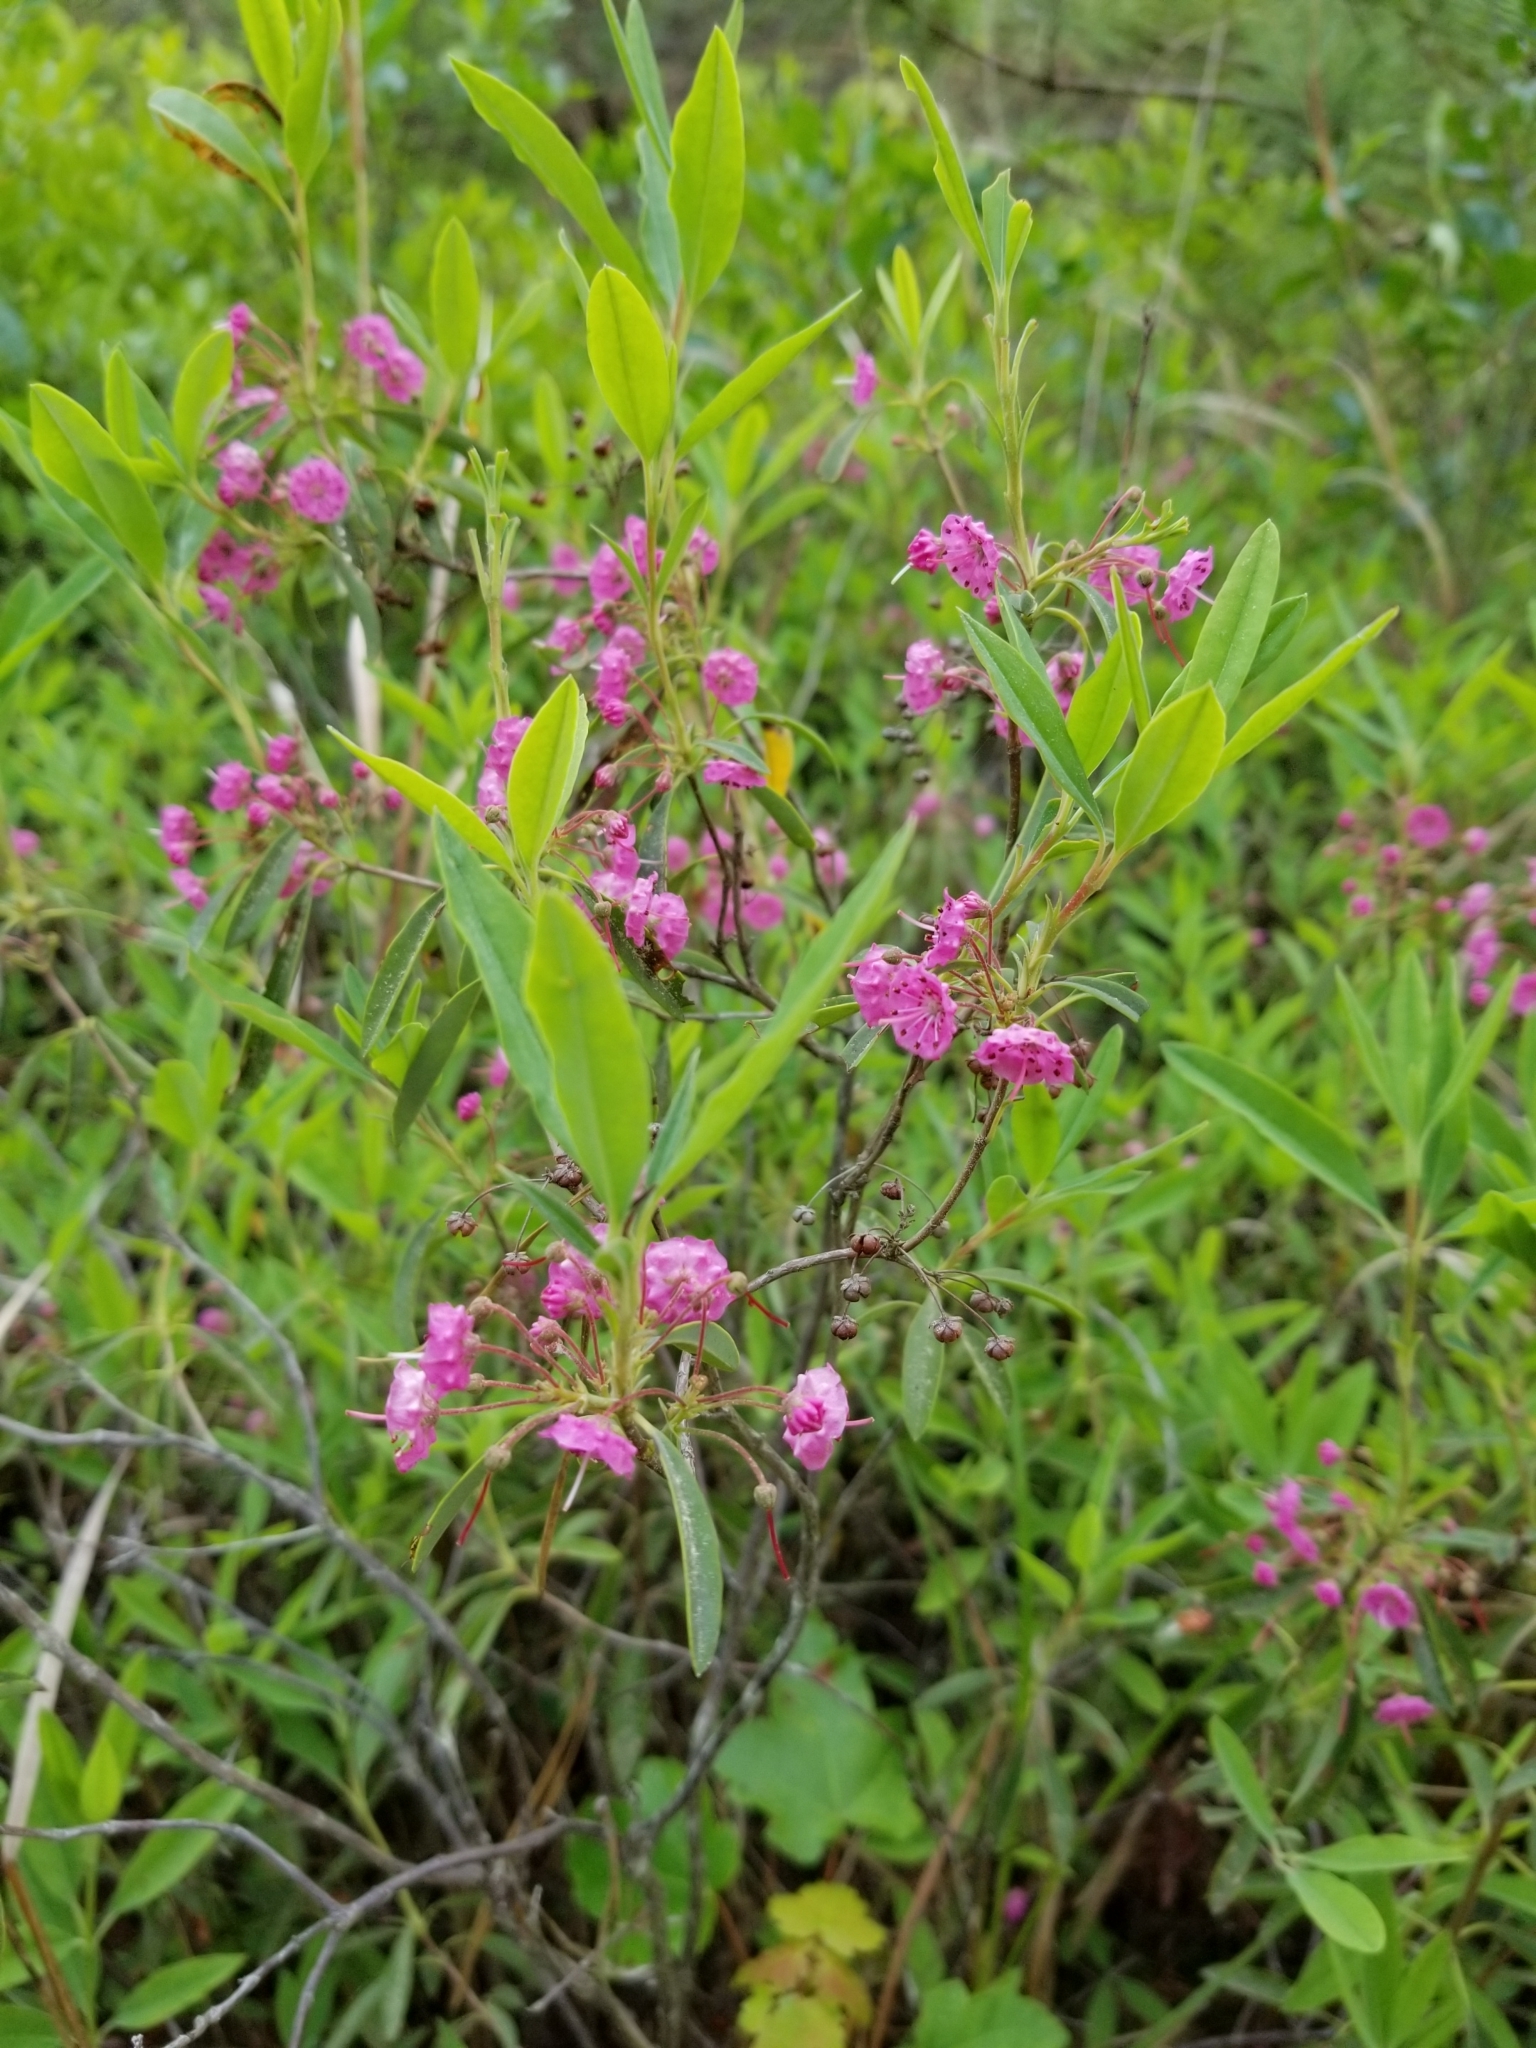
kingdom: Plantae
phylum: Tracheophyta
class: Magnoliopsida
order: Ericales
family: Ericaceae
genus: Kalmia
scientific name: Kalmia angustifolia
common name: Sheep-laurel
